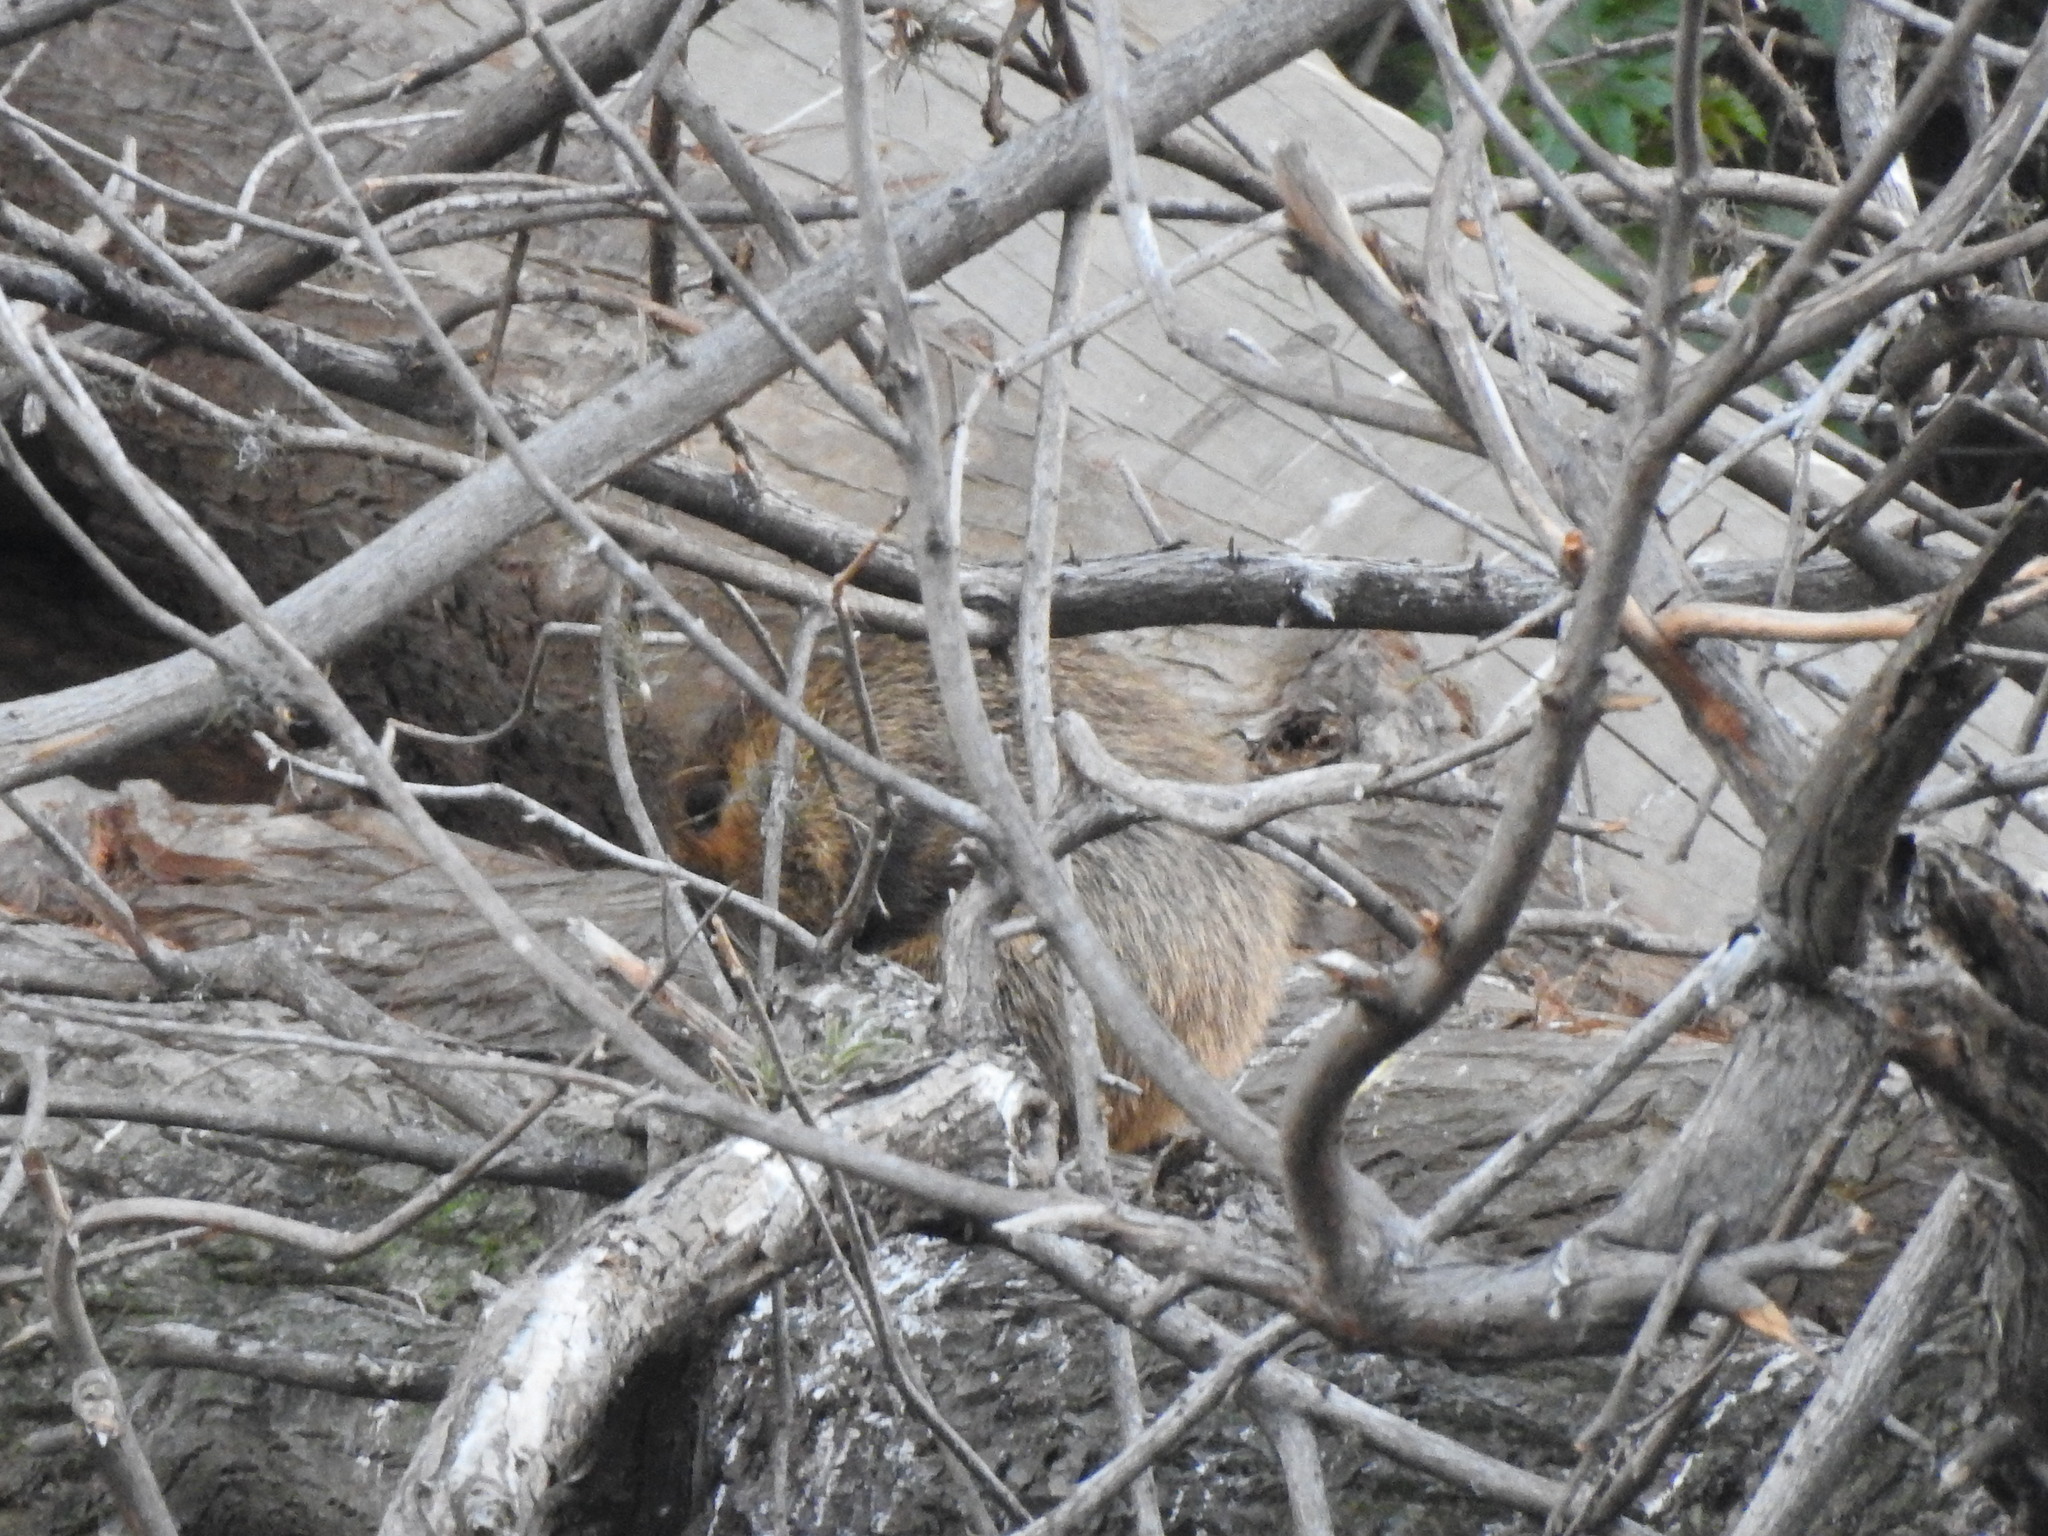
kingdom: Animalia
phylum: Chordata
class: Mammalia
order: Rodentia
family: Myocastoridae
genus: Myocastor
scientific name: Myocastor coypus
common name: Coypu
